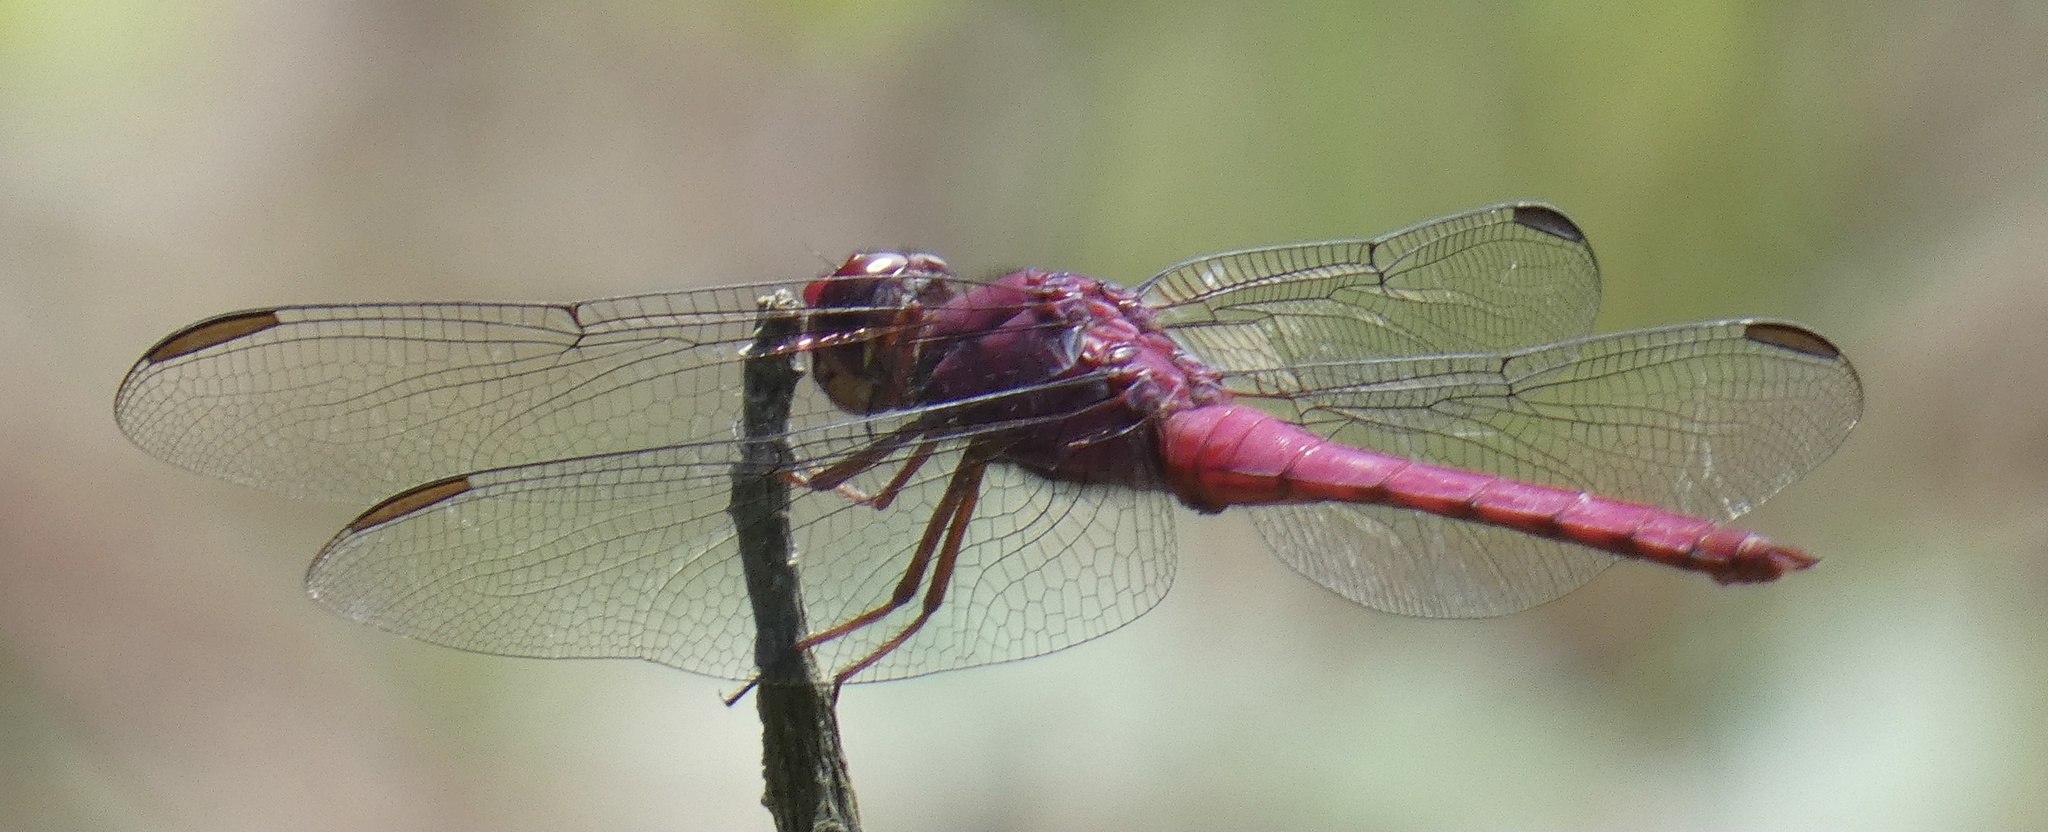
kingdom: Animalia
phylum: Arthropoda
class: Insecta
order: Odonata
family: Libellulidae
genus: Orthemis
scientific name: Orthemis discolor
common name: Carmine skimmer
